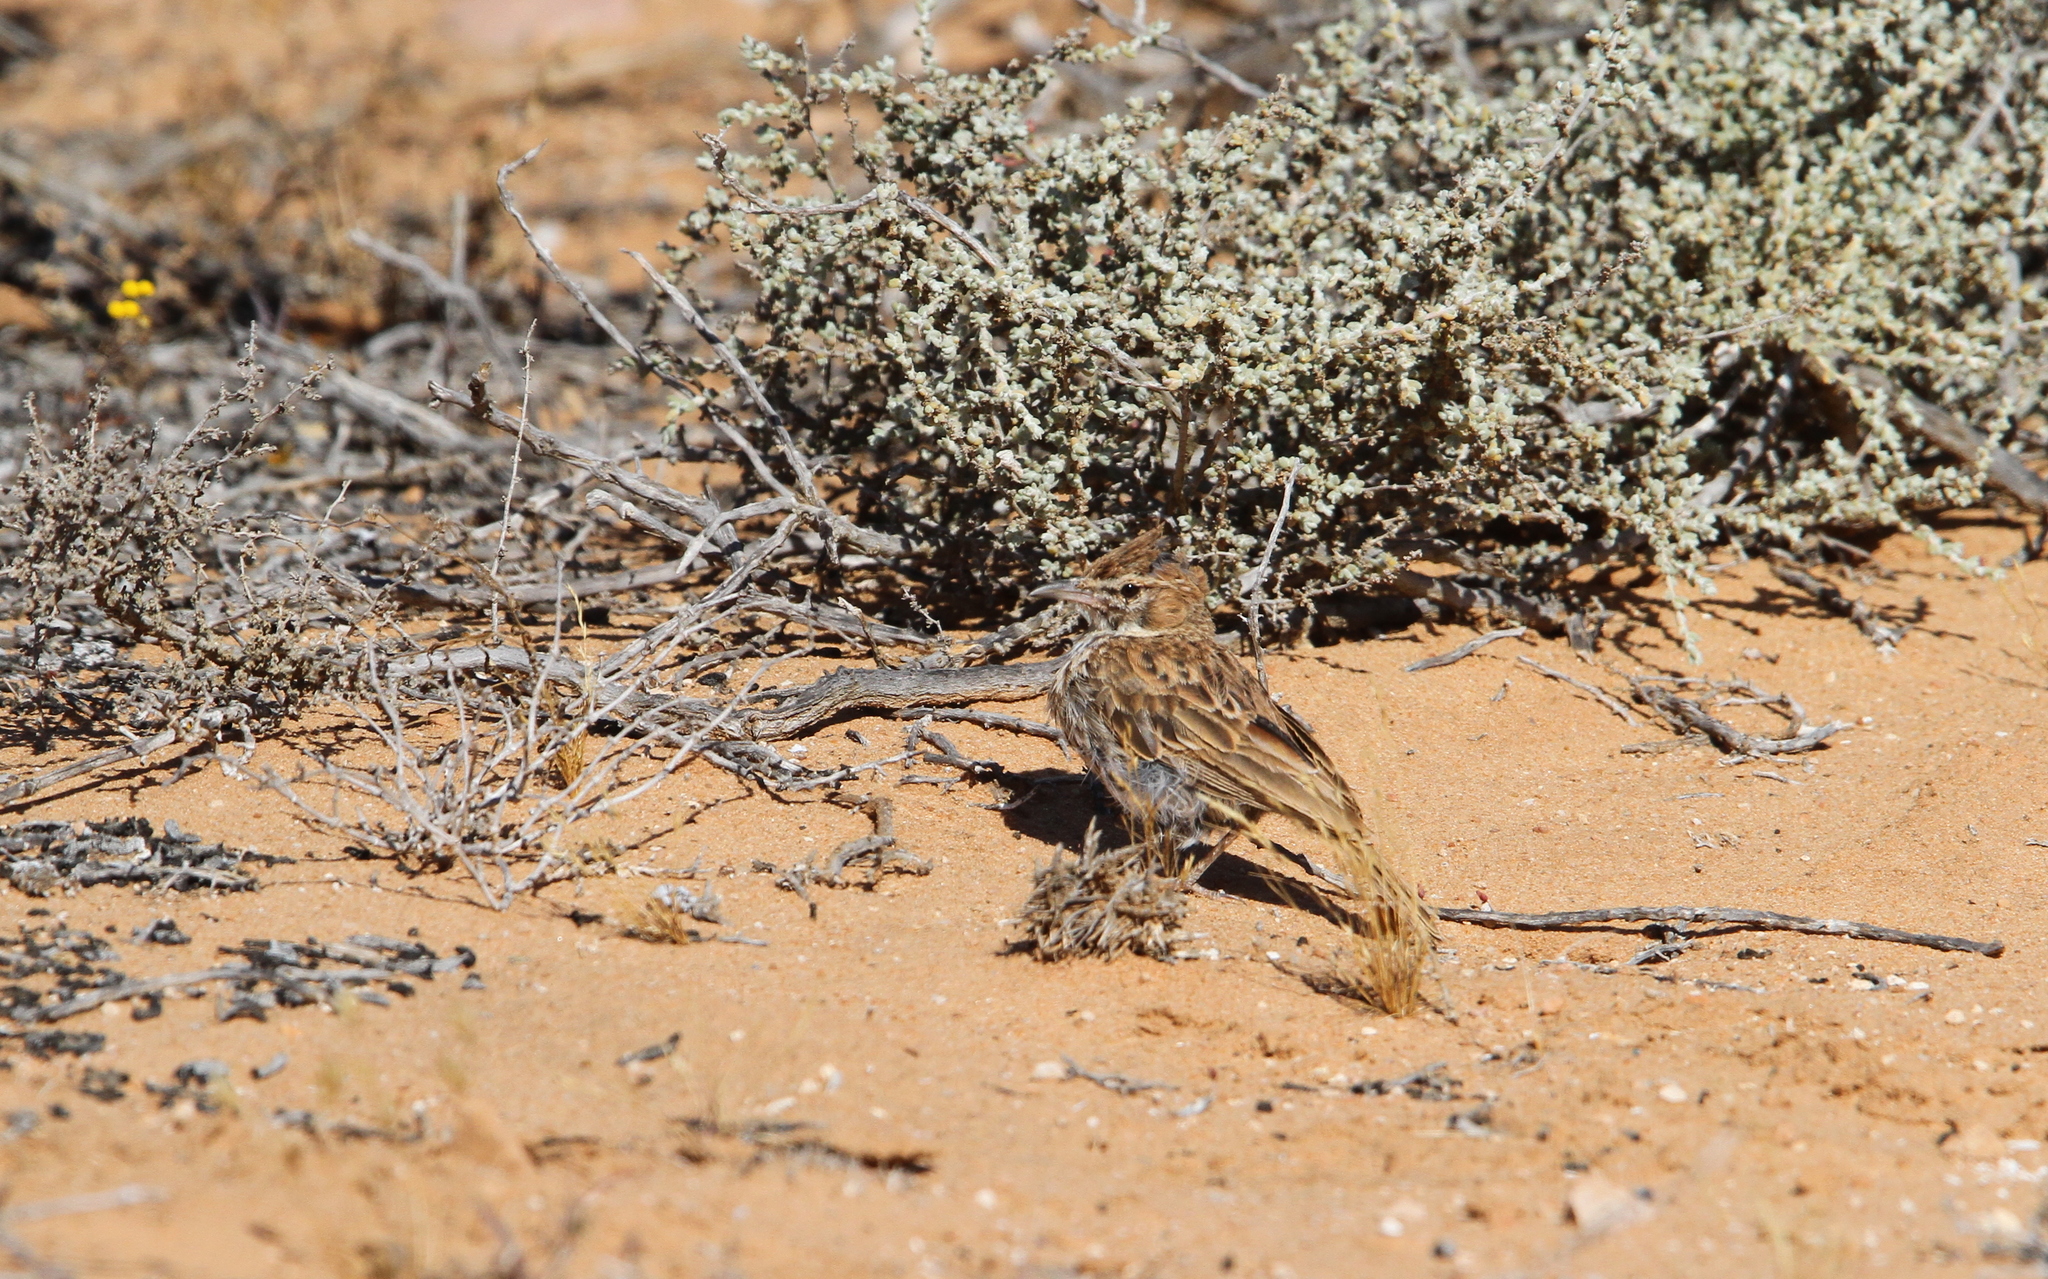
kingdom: Animalia
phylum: Chordata
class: Aves
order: Passeriformes
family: Alaudidae
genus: Calendulauda
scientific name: Calendulauda albescens
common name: Karoo lark
